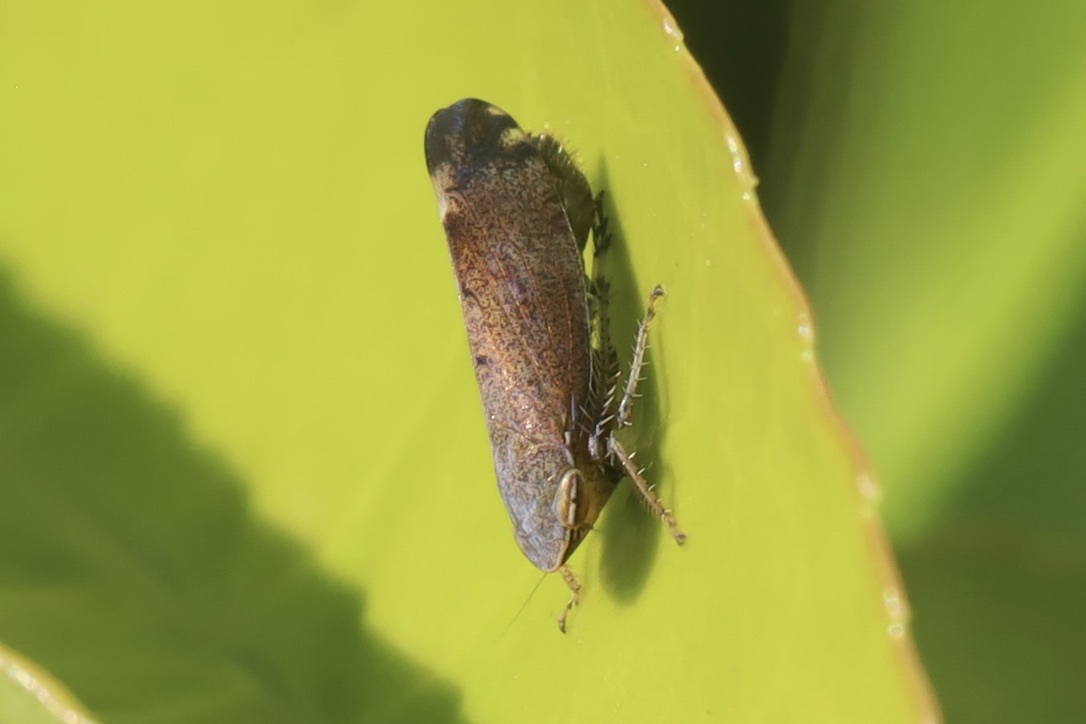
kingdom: Animalia
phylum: Arthropoda
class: Insecta
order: Hemiptera
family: Cicadellidae
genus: Fieberiella
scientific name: Fieberiella florii
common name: Flor’s leafhopper
